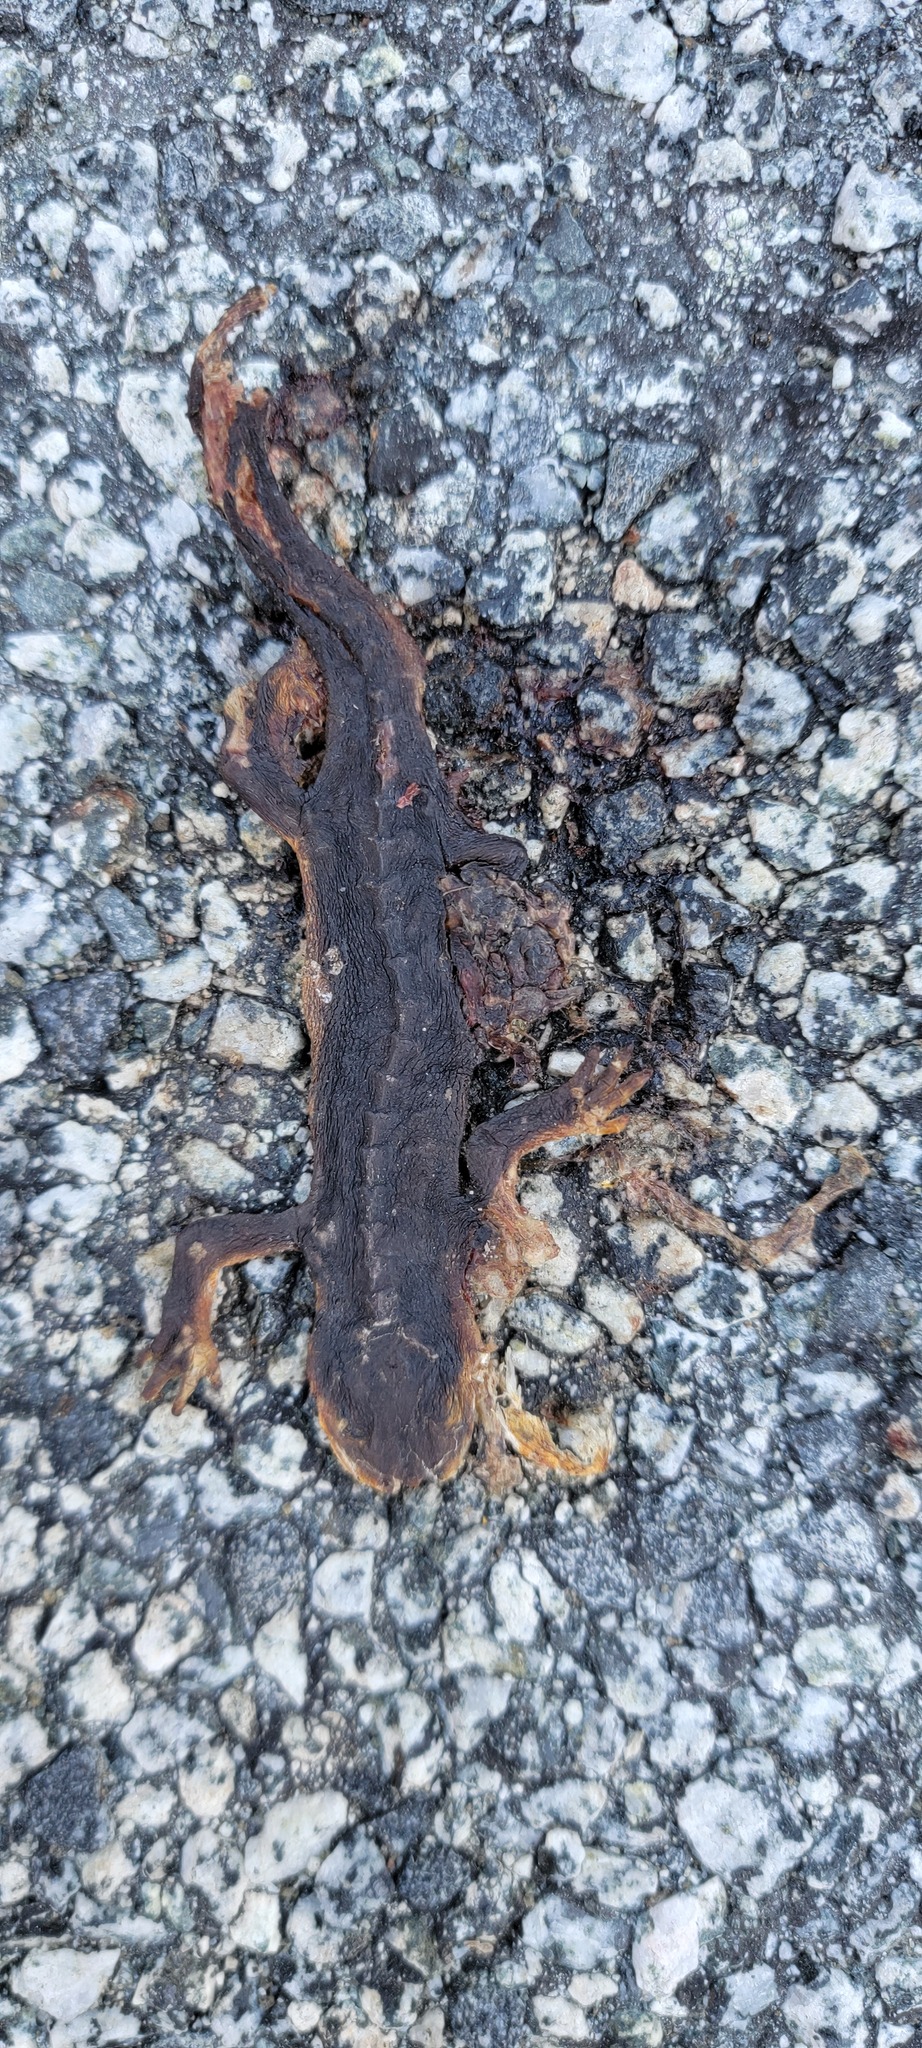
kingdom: Animalia
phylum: Chordata
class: Amphibia
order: Caudata
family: Salamandridae
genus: Taricha
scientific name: Taricha
